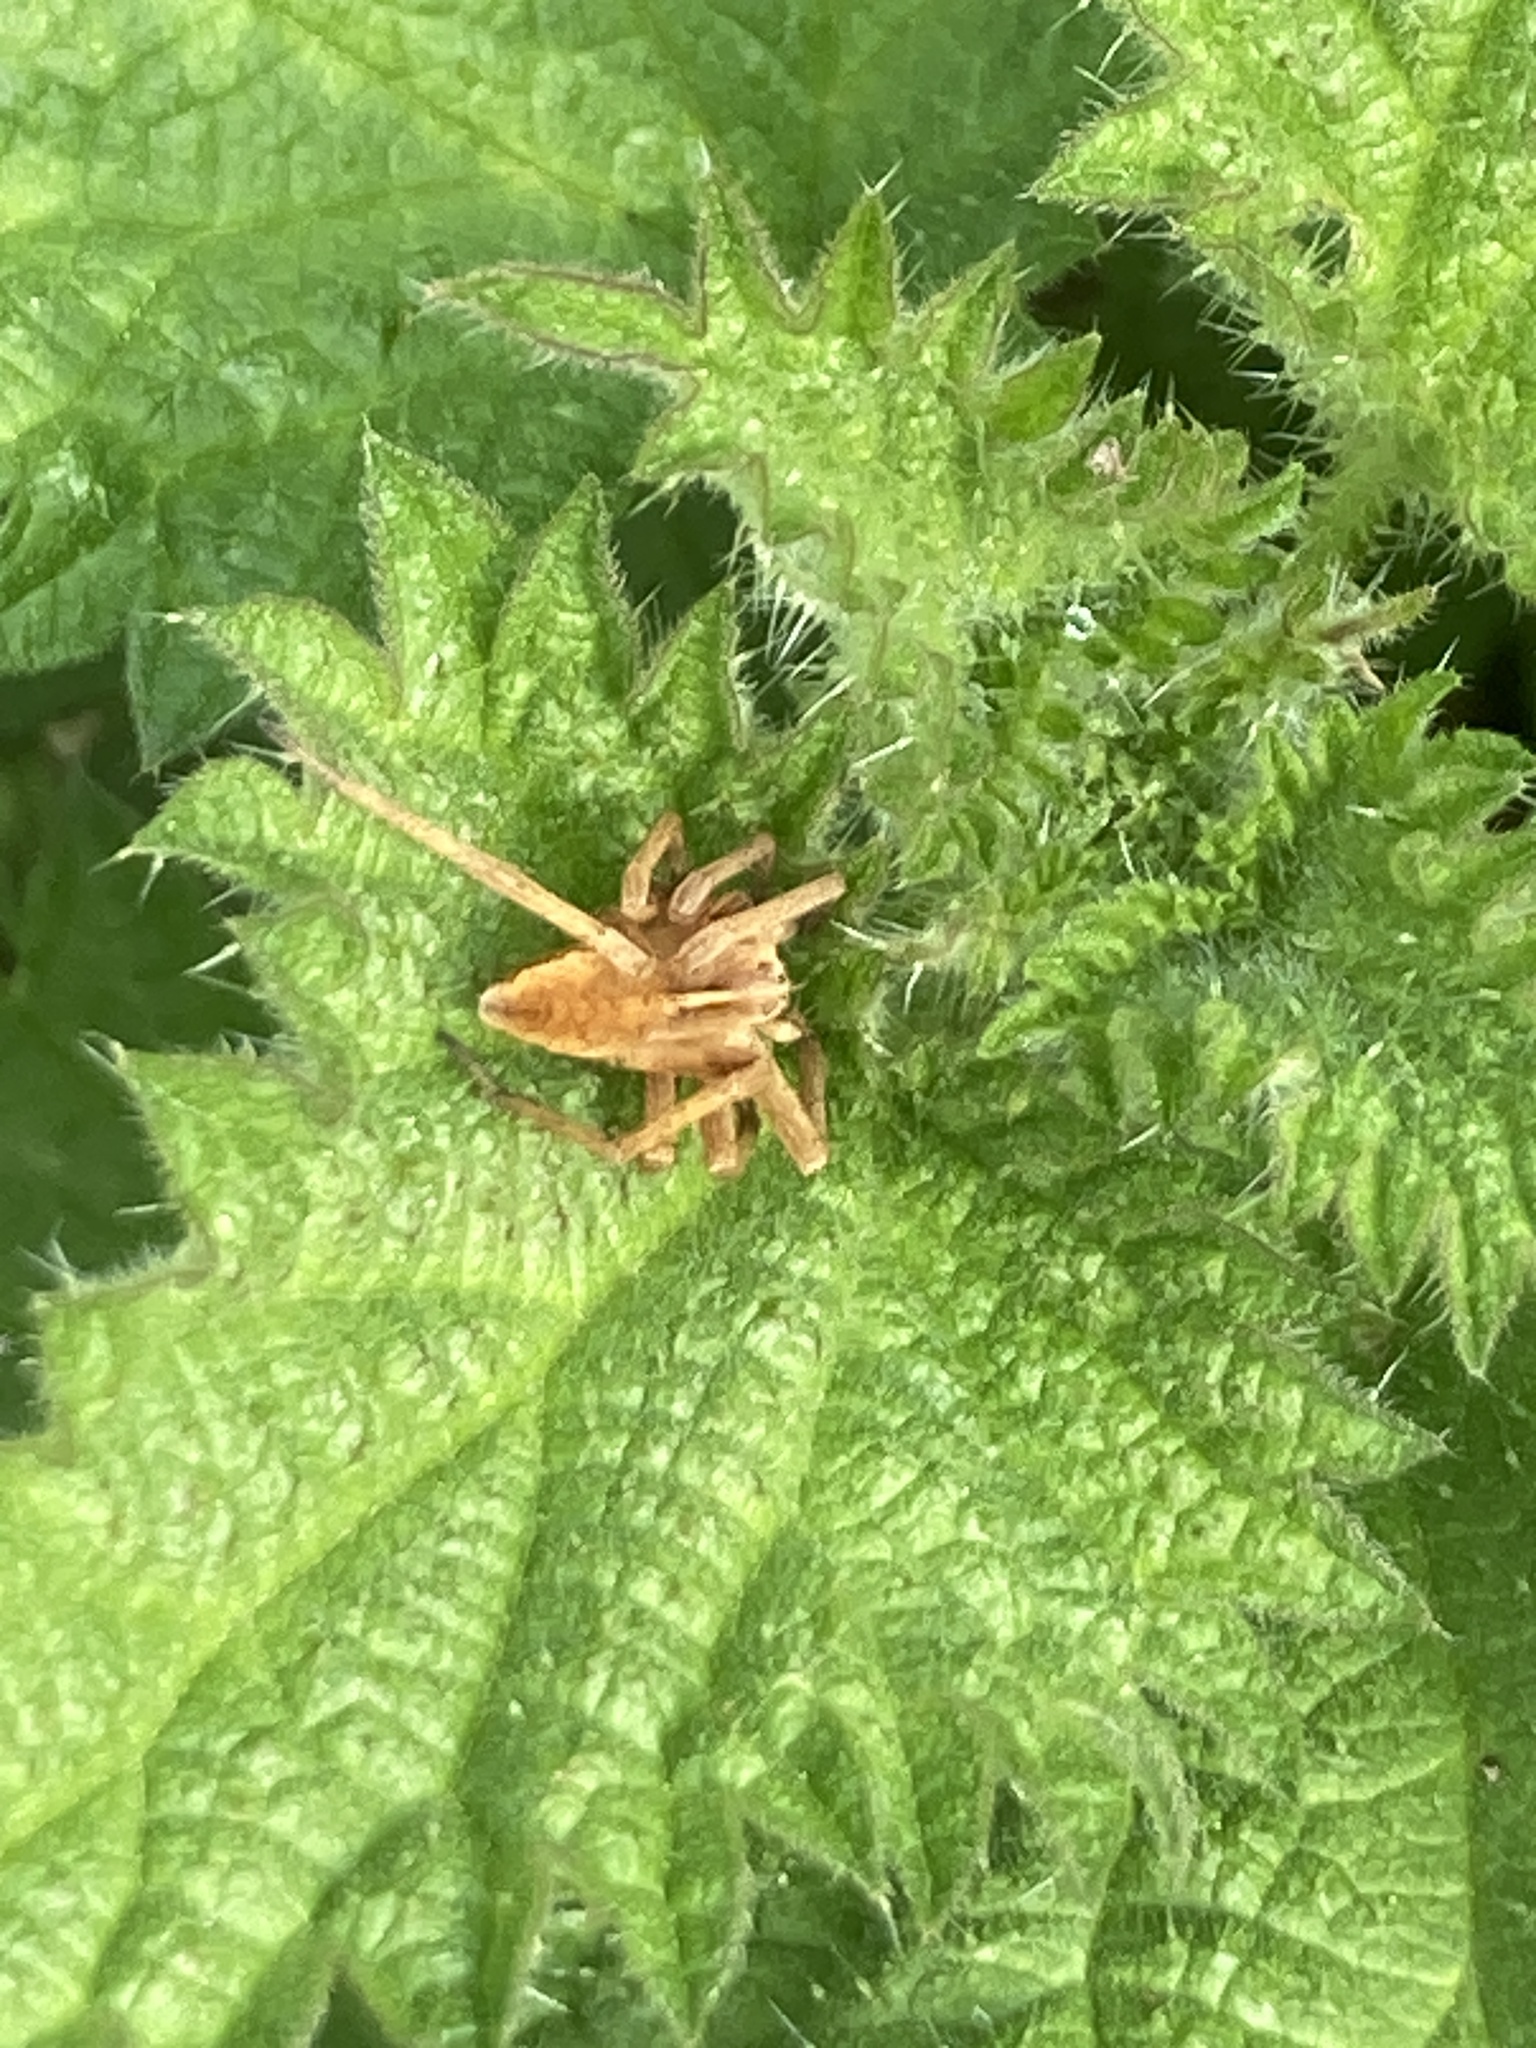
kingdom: Animalia
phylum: Arthropoda
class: Arachnida
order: Araneae
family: Pisauridae
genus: Pisaura
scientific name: Pisaura mirabilis
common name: Tent spider
